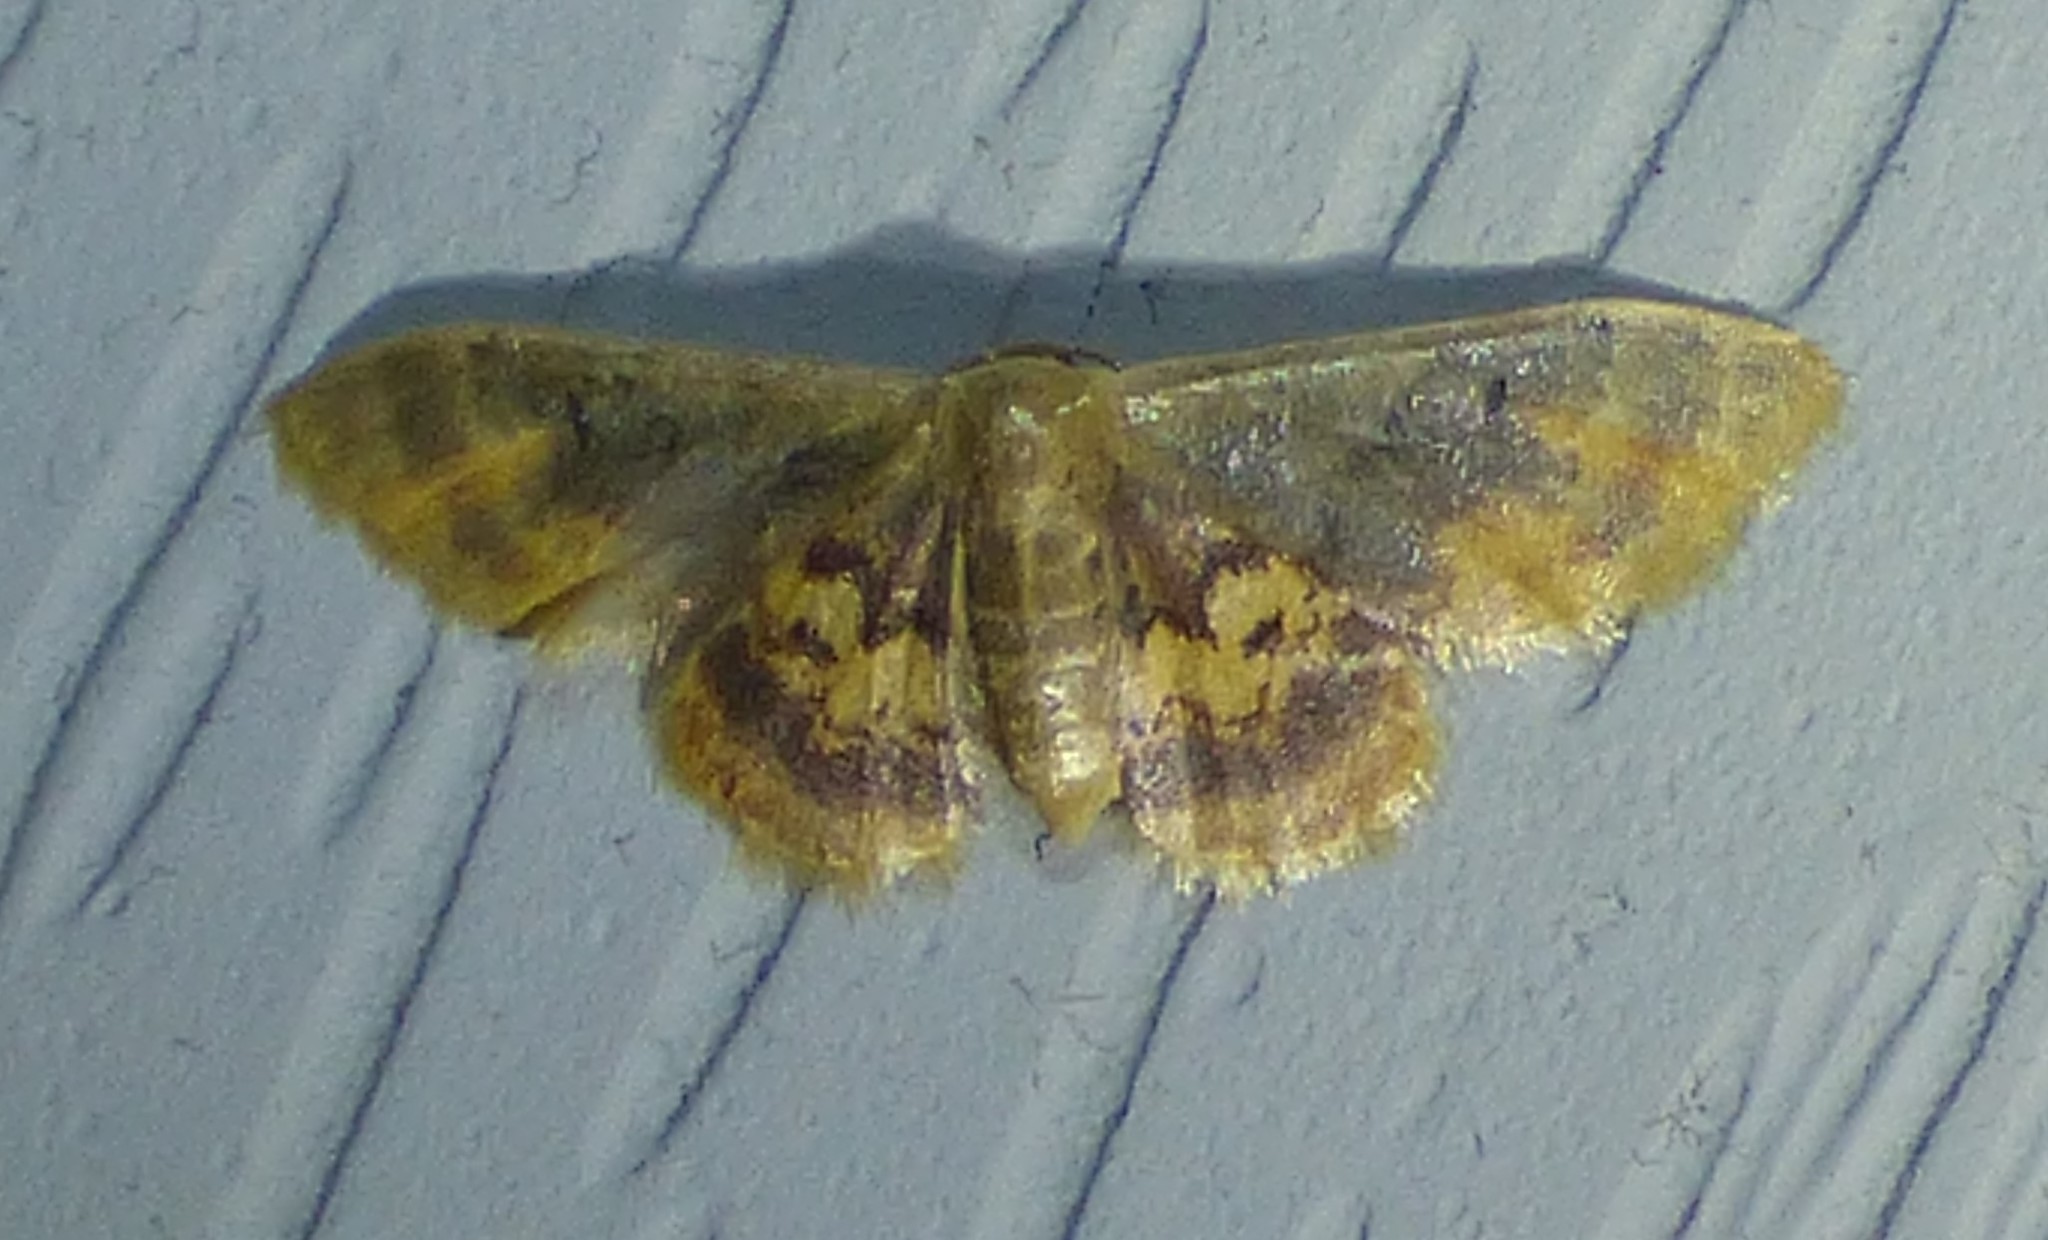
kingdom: Animalia
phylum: Arthropoda
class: Insecta
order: Lepidoptera
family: Geometridae
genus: Idaea
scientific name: Idaea scintillularia
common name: Diminutive wave
